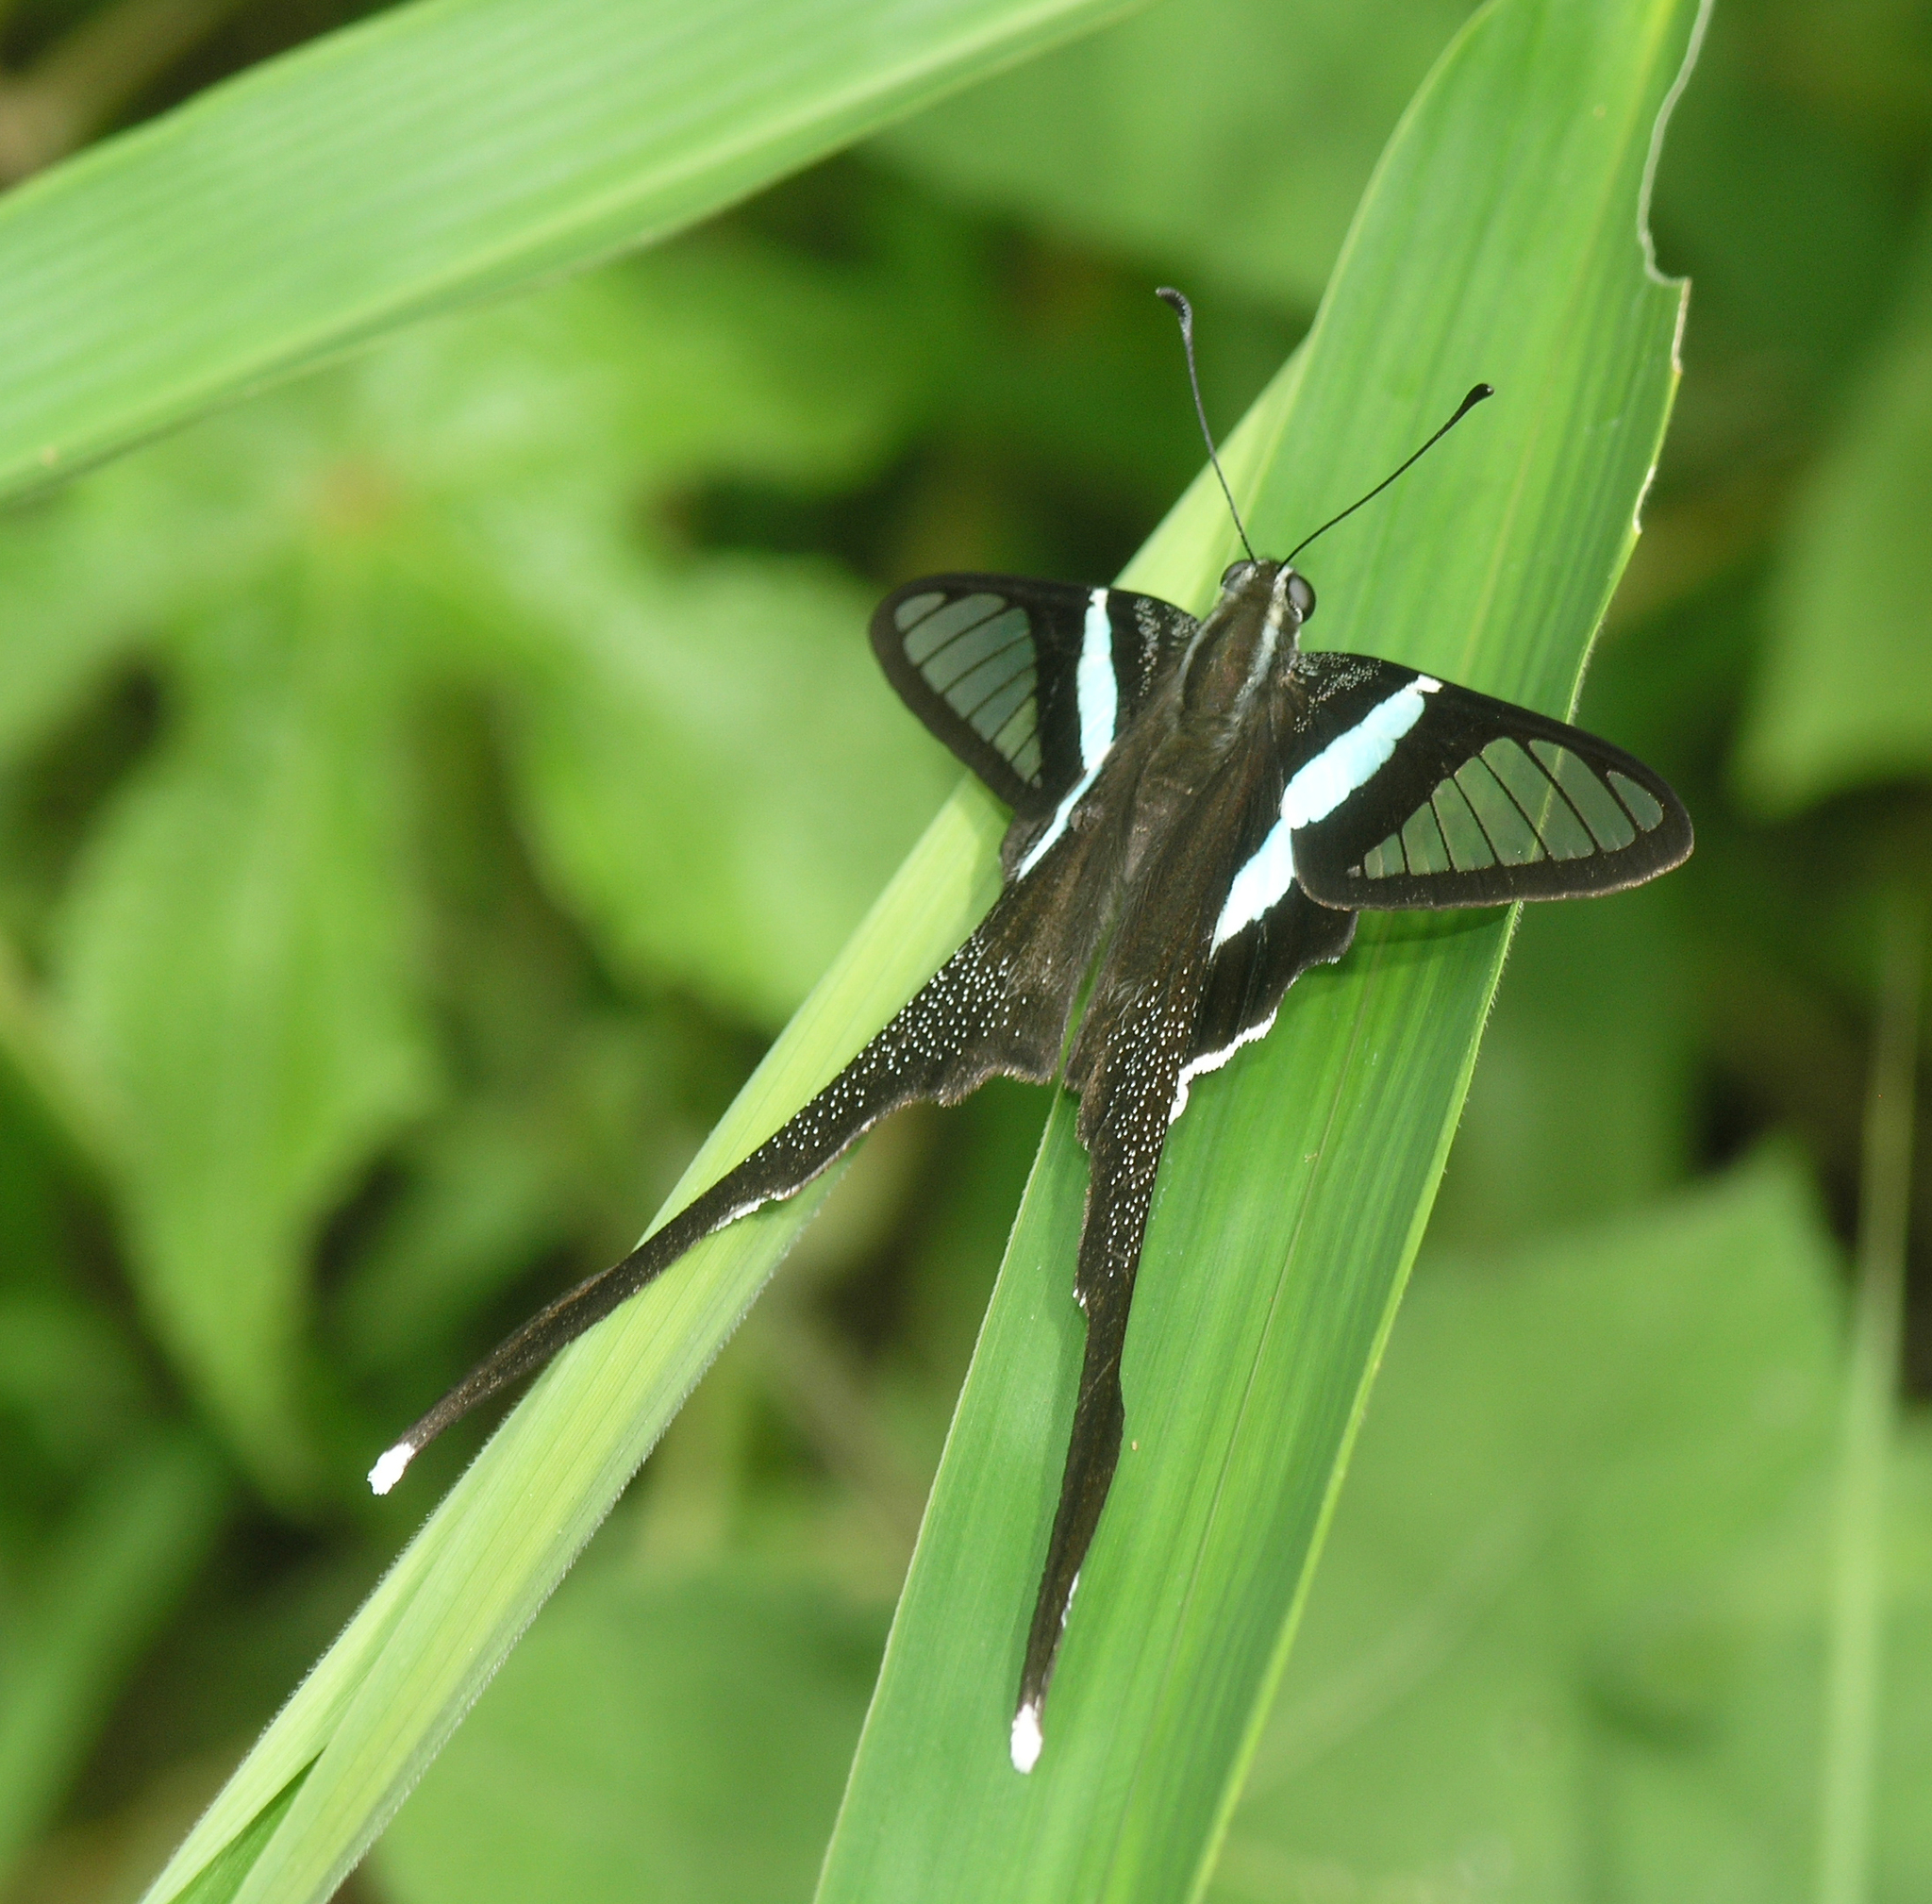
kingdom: Animalia
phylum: Arthropoda
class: Insecta
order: Lepidoptera
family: Papilionidae
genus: Lamproptera
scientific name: Lamproptera meges
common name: Green dragontail
